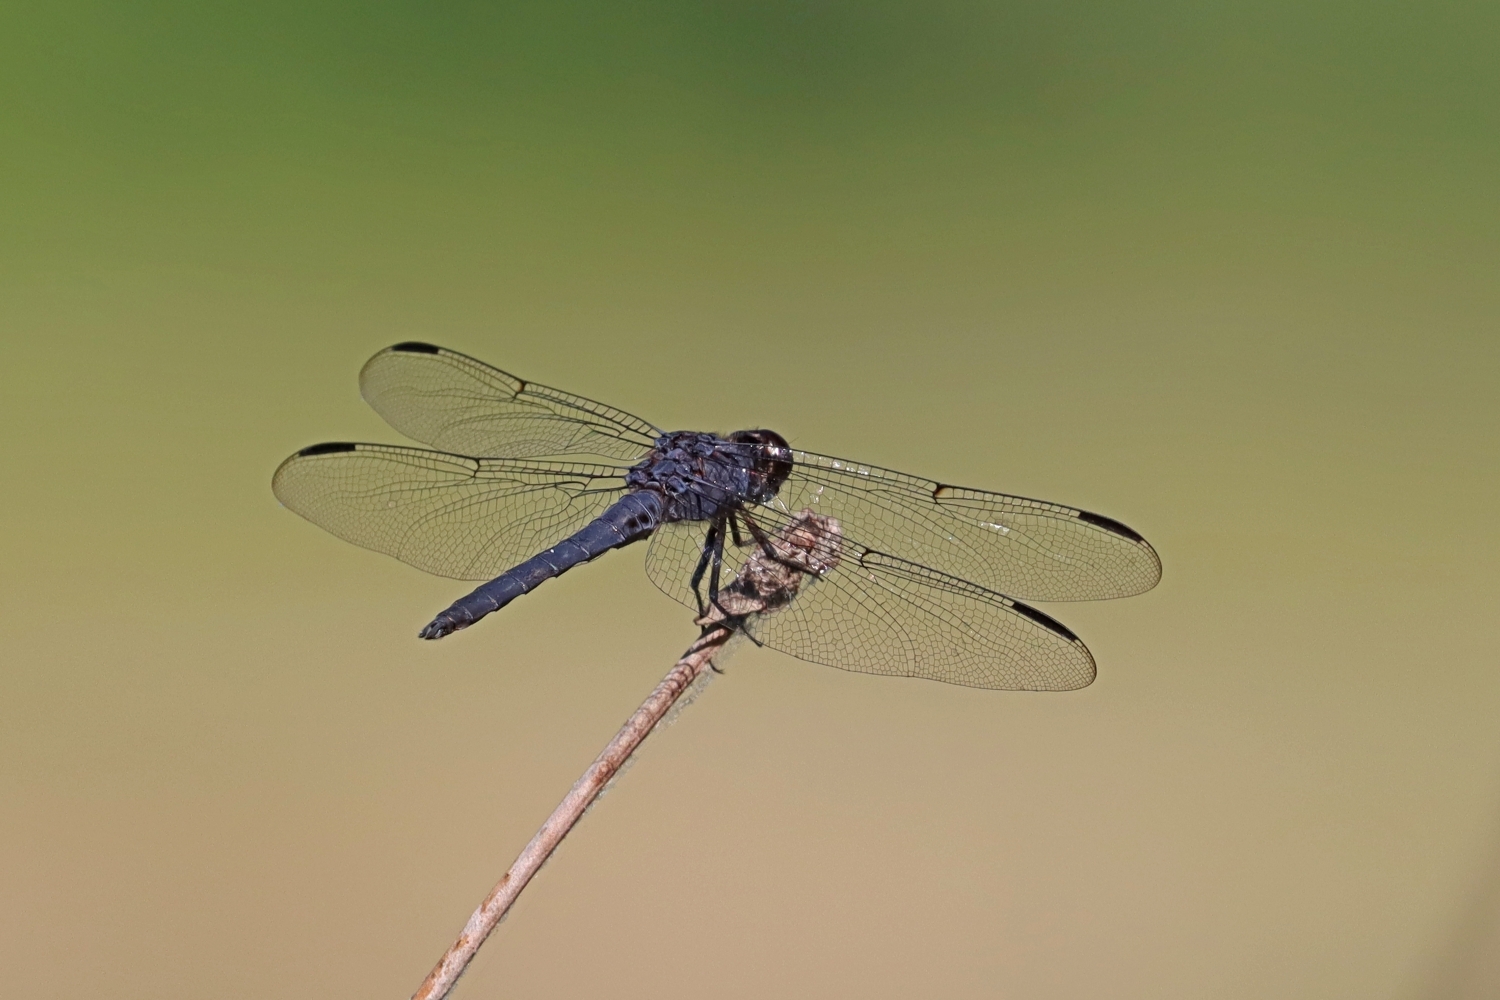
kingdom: Animalia
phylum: Arthropoda
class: Insecta
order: Odonata
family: Libellulidae
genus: Libellula
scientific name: Libellula incesta
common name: Slaty skimmer
